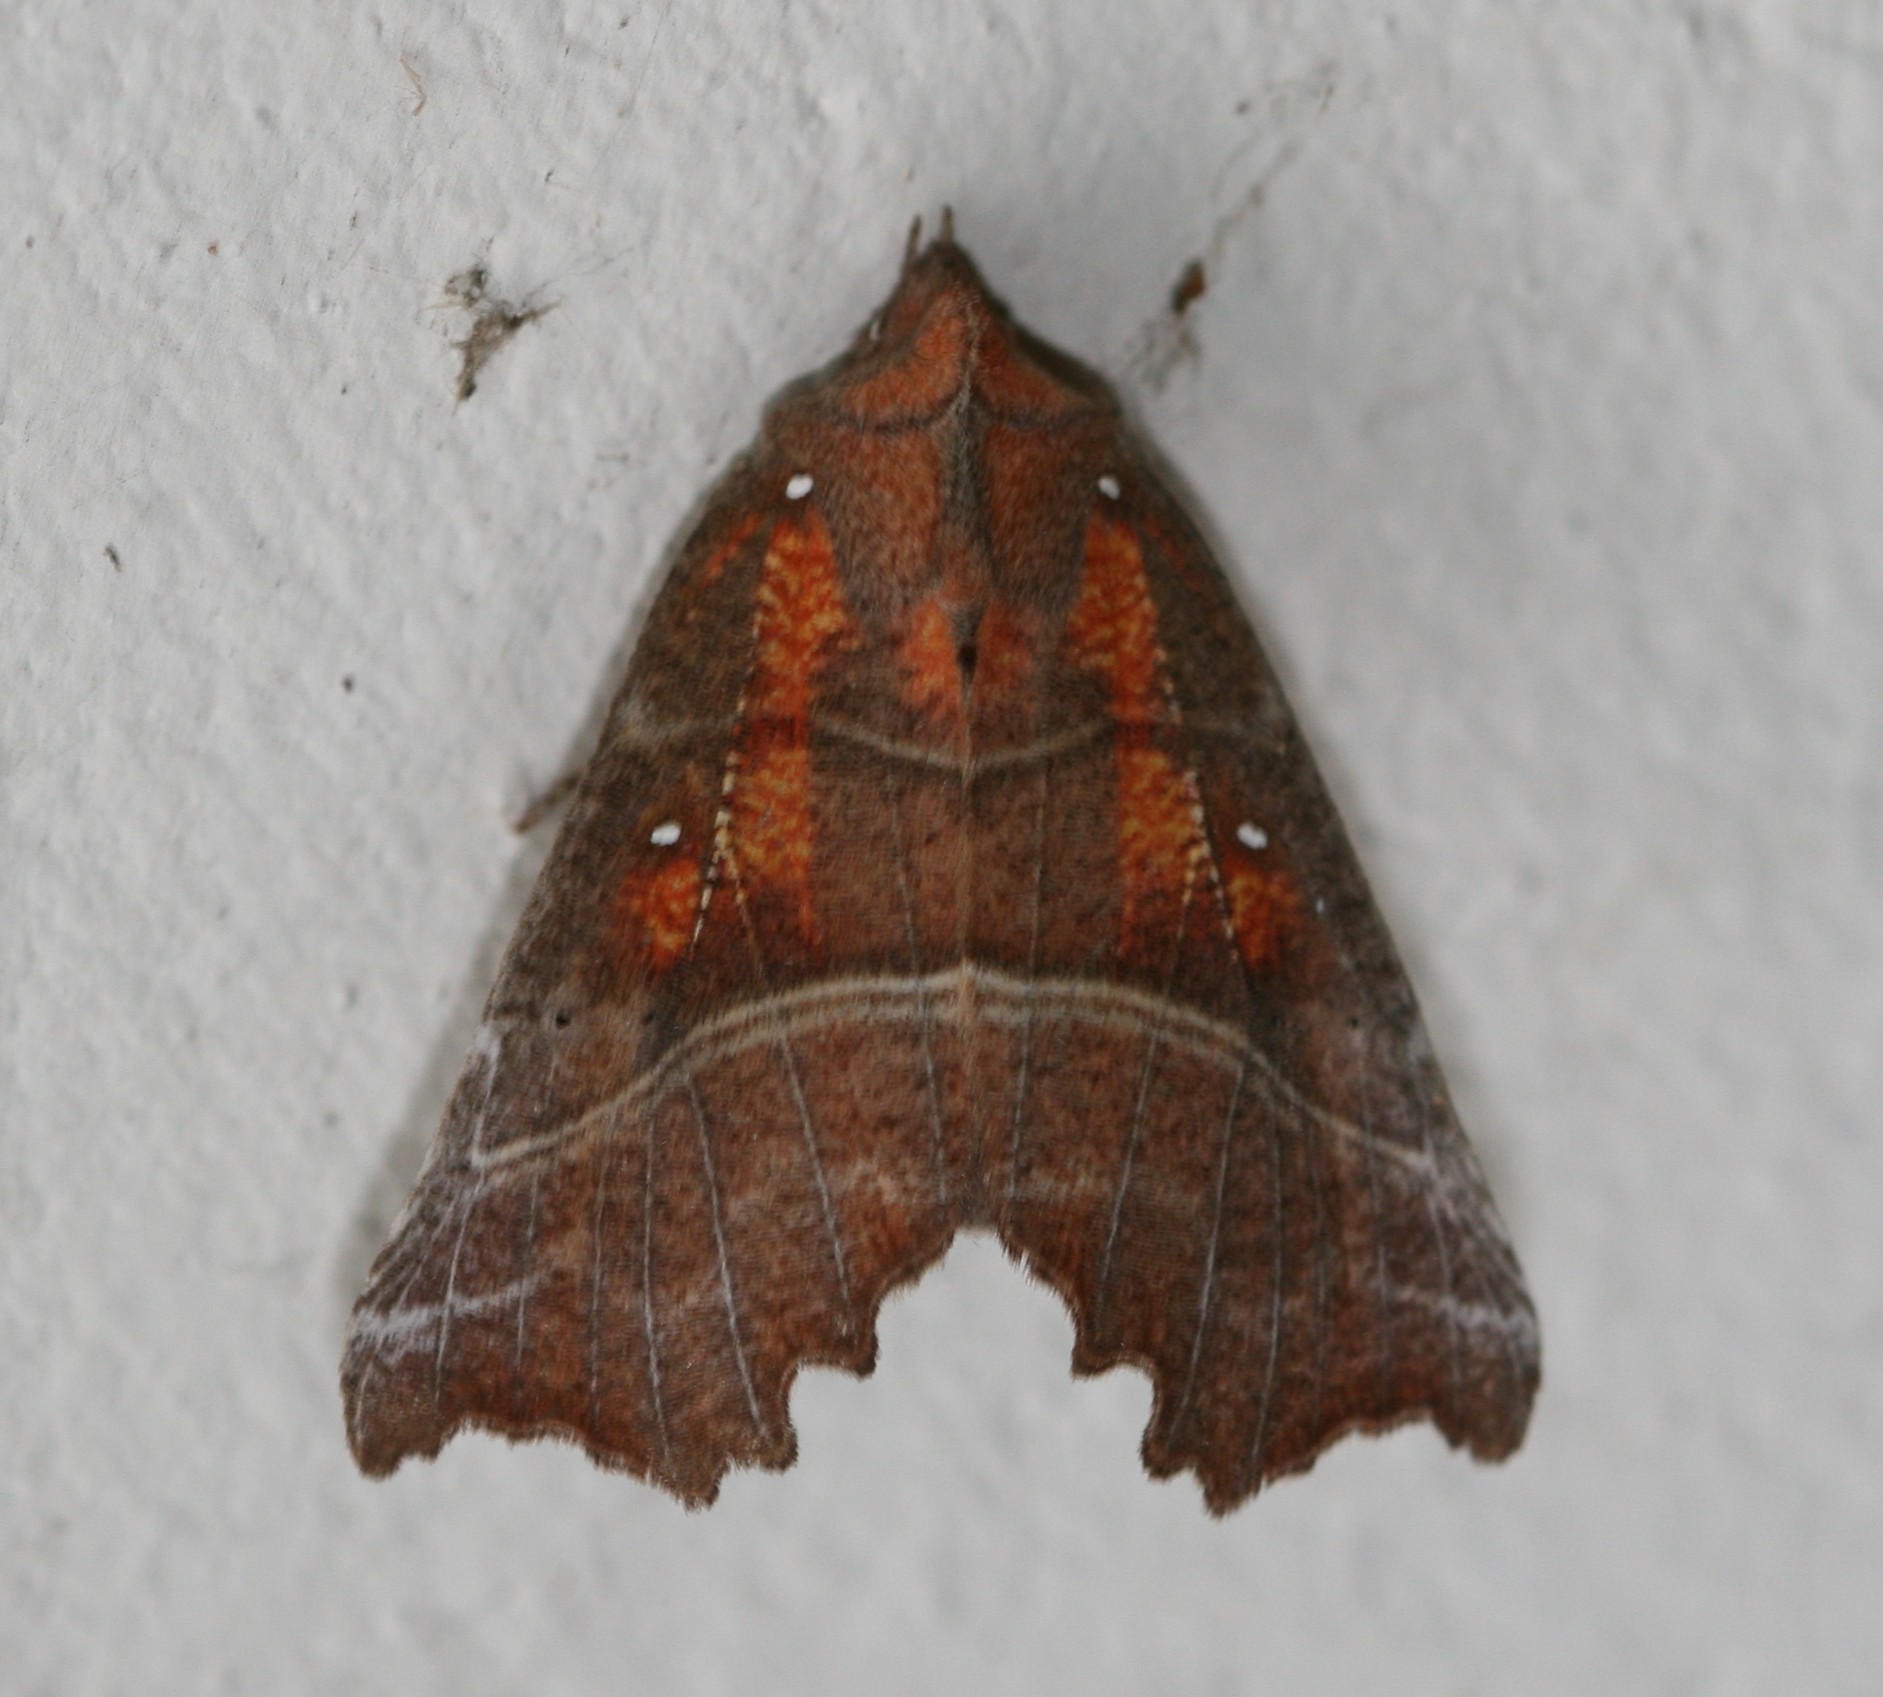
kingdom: Animalia
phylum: Arthropoda
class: Insecta
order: Lepidoptera
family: Erebidae
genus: Scoliopteryx
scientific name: Scoliopteryx libatrix
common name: Herald
